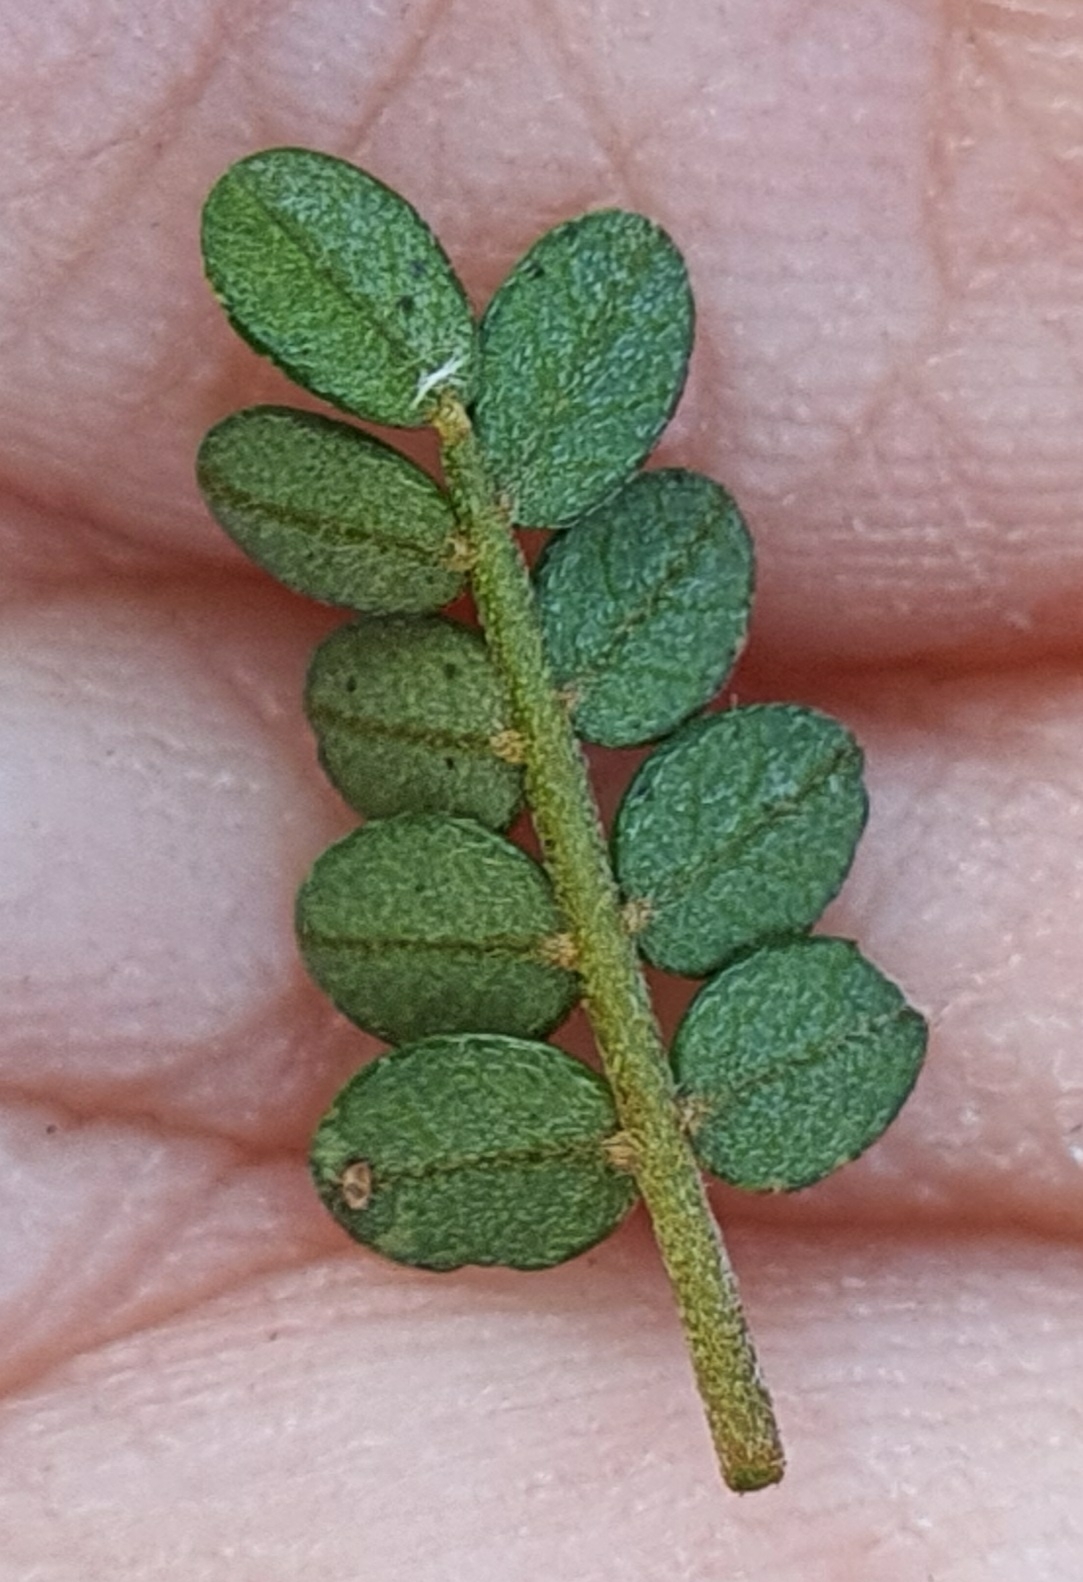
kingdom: Plantae
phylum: Tracheophyta
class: Magnoliopsida
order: Fabales
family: Fabaceae
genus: Sophora
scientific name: Sophora prostrata
